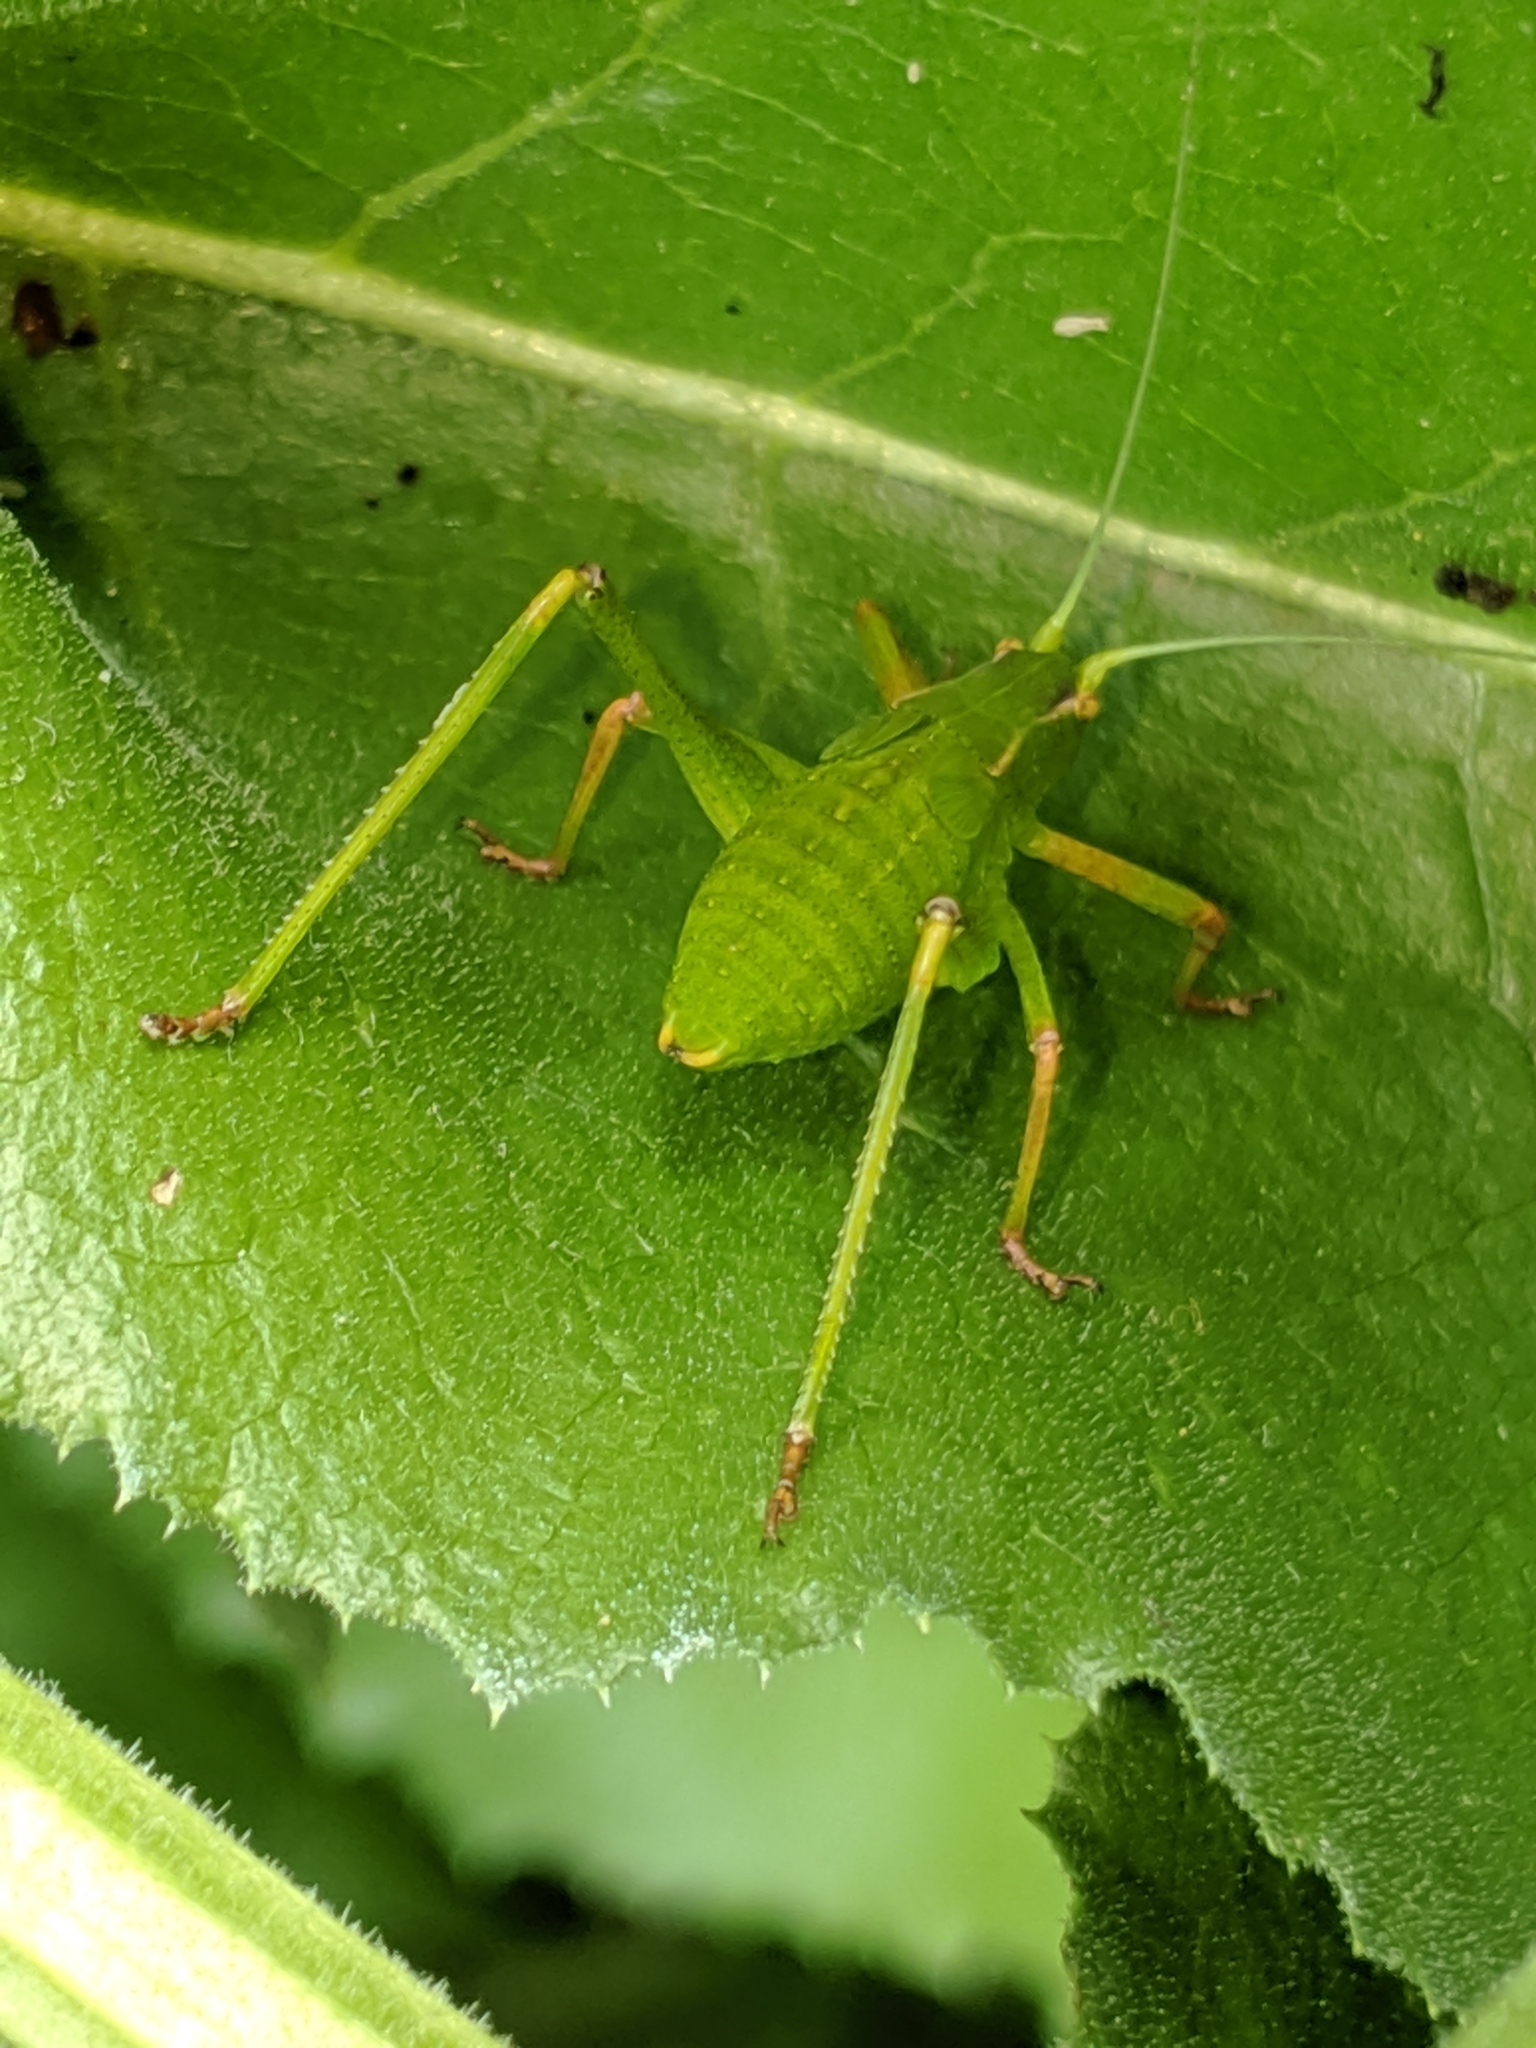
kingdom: Animalia
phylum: Arthropoda
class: Insecta
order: Orthoptera
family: Tettigoniidae
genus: Platylyra
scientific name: Platylyra californica
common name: Chaparral false katydid
